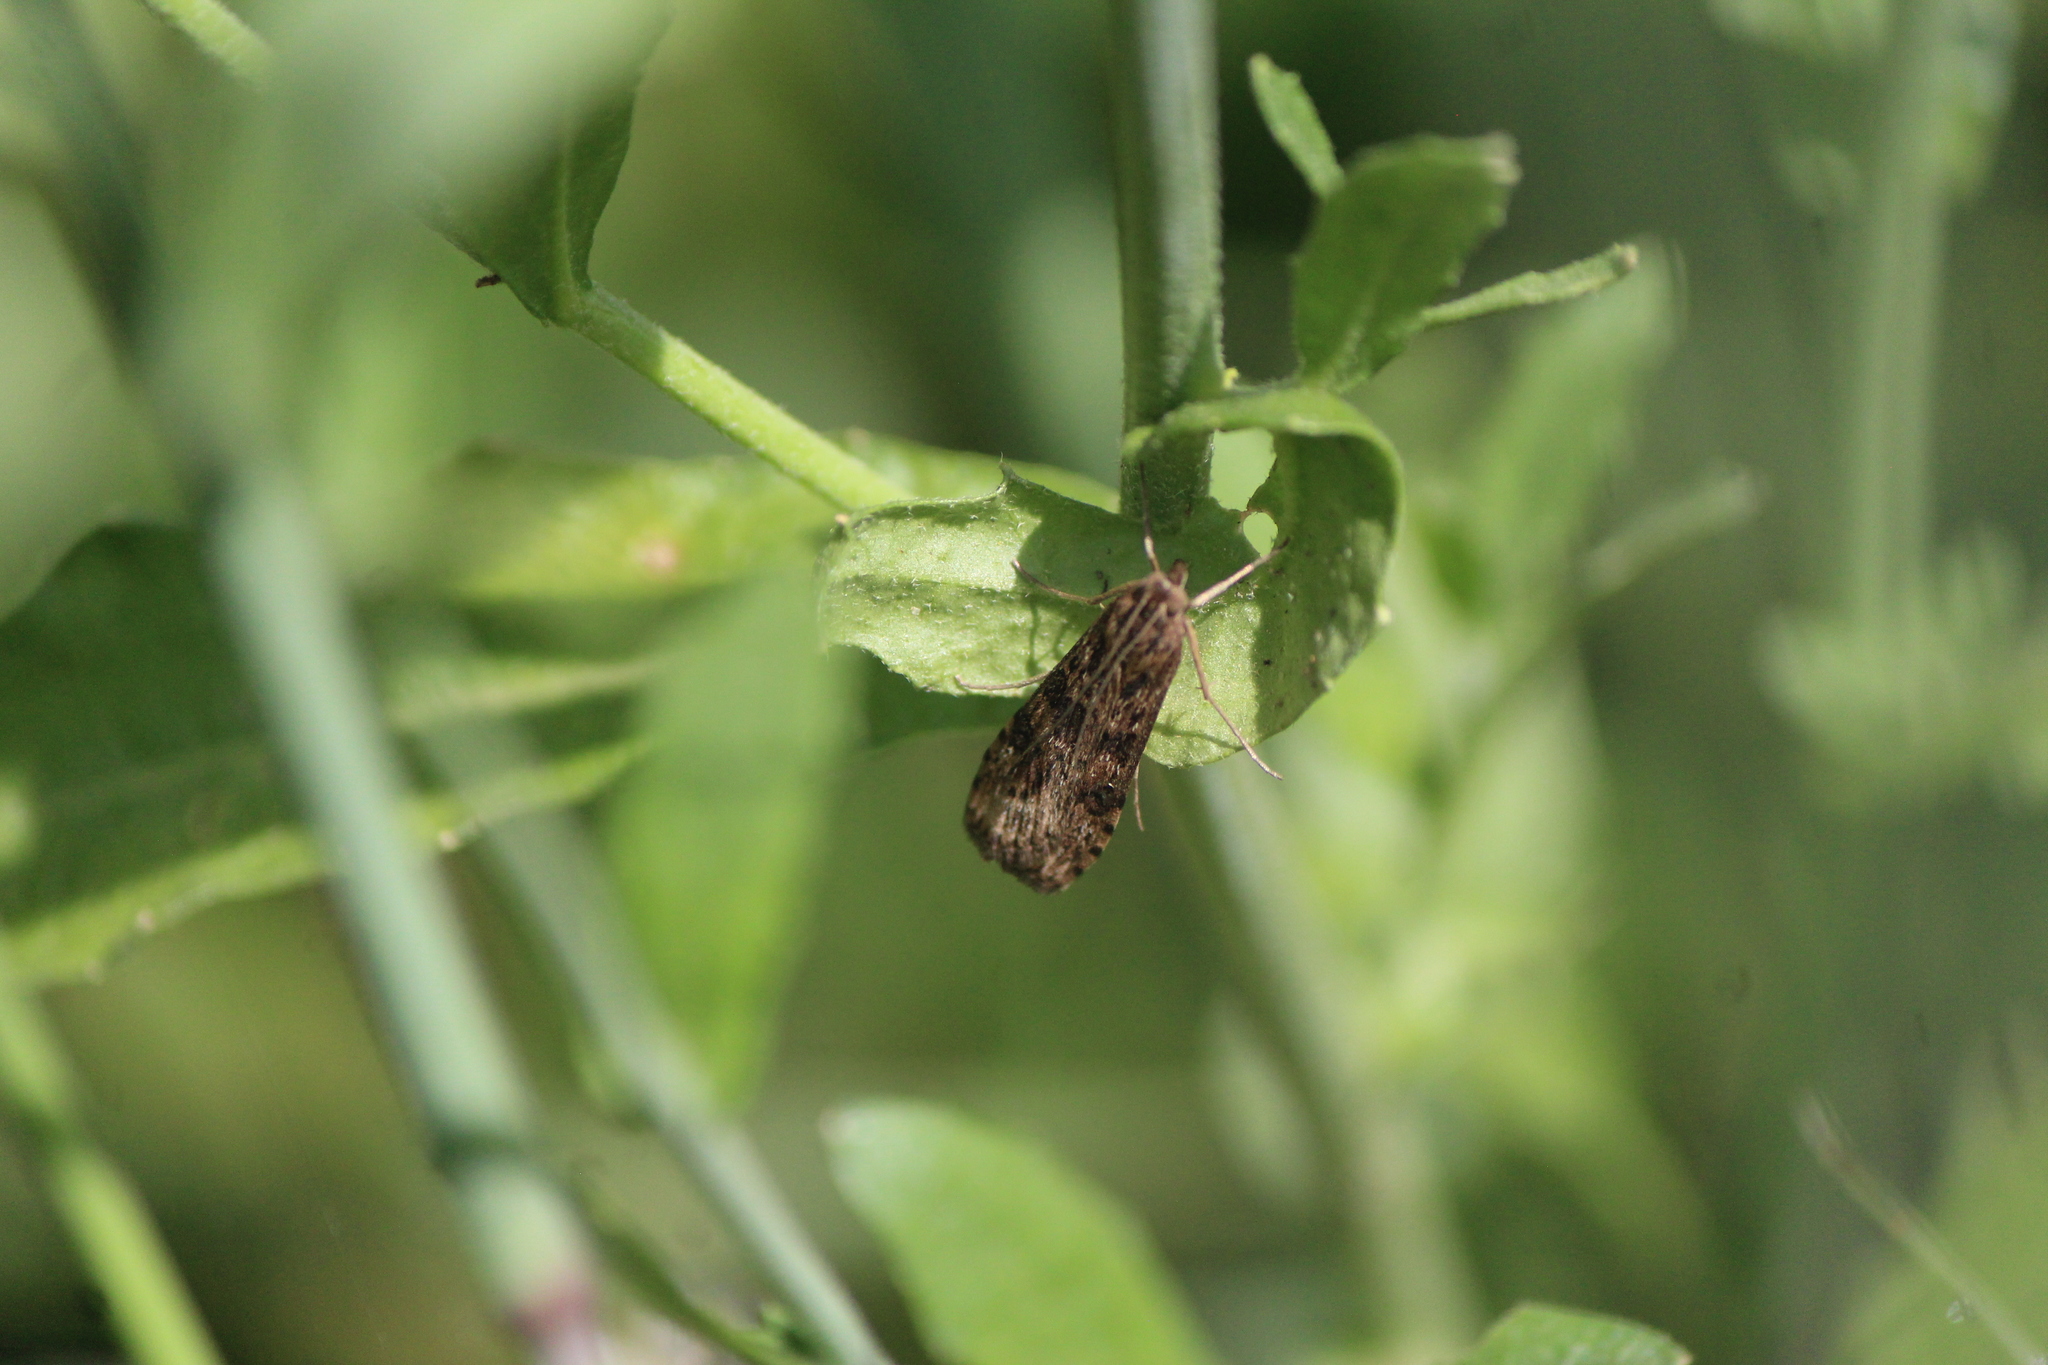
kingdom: Animalia
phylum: Arthropoda
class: Insecta
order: Lepidoptera
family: Crambidae
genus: Nomophila
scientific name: Nomophila nearctica
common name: American rush veneer
